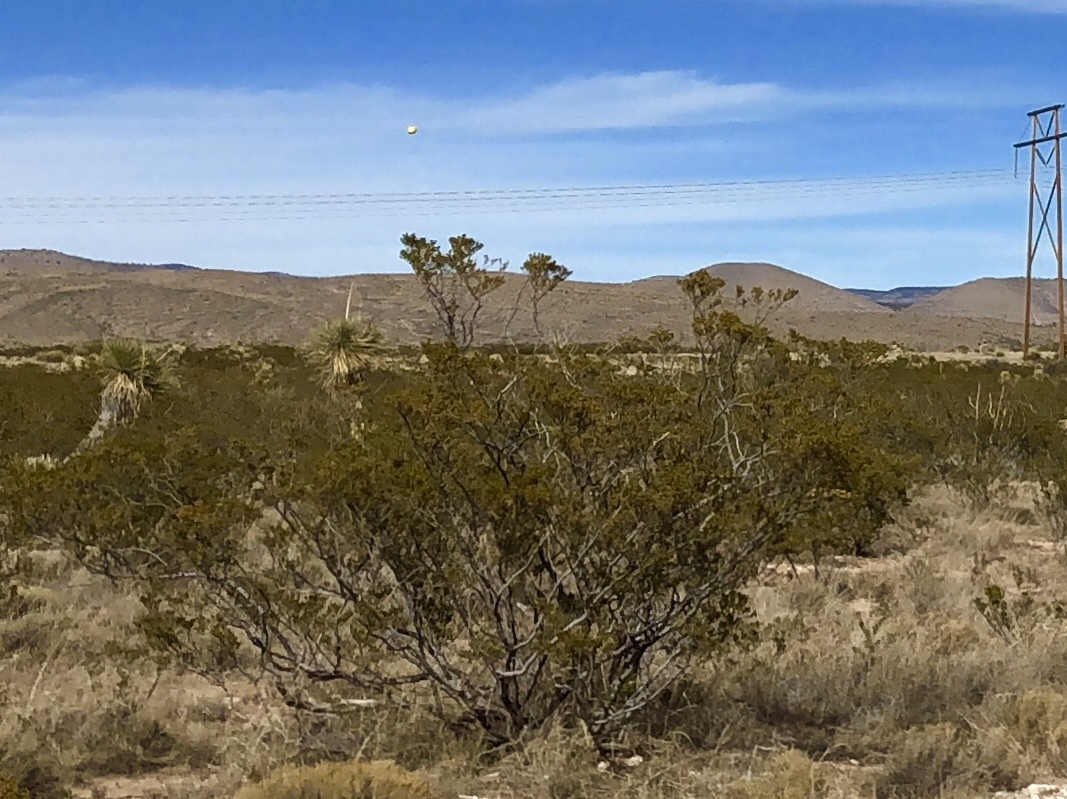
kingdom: Plantae
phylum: Tracheophyta
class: Magnoliopsida
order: Zygophyllales
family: Zygophyllaceae
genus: Larrea
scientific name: Larrea tridentata
